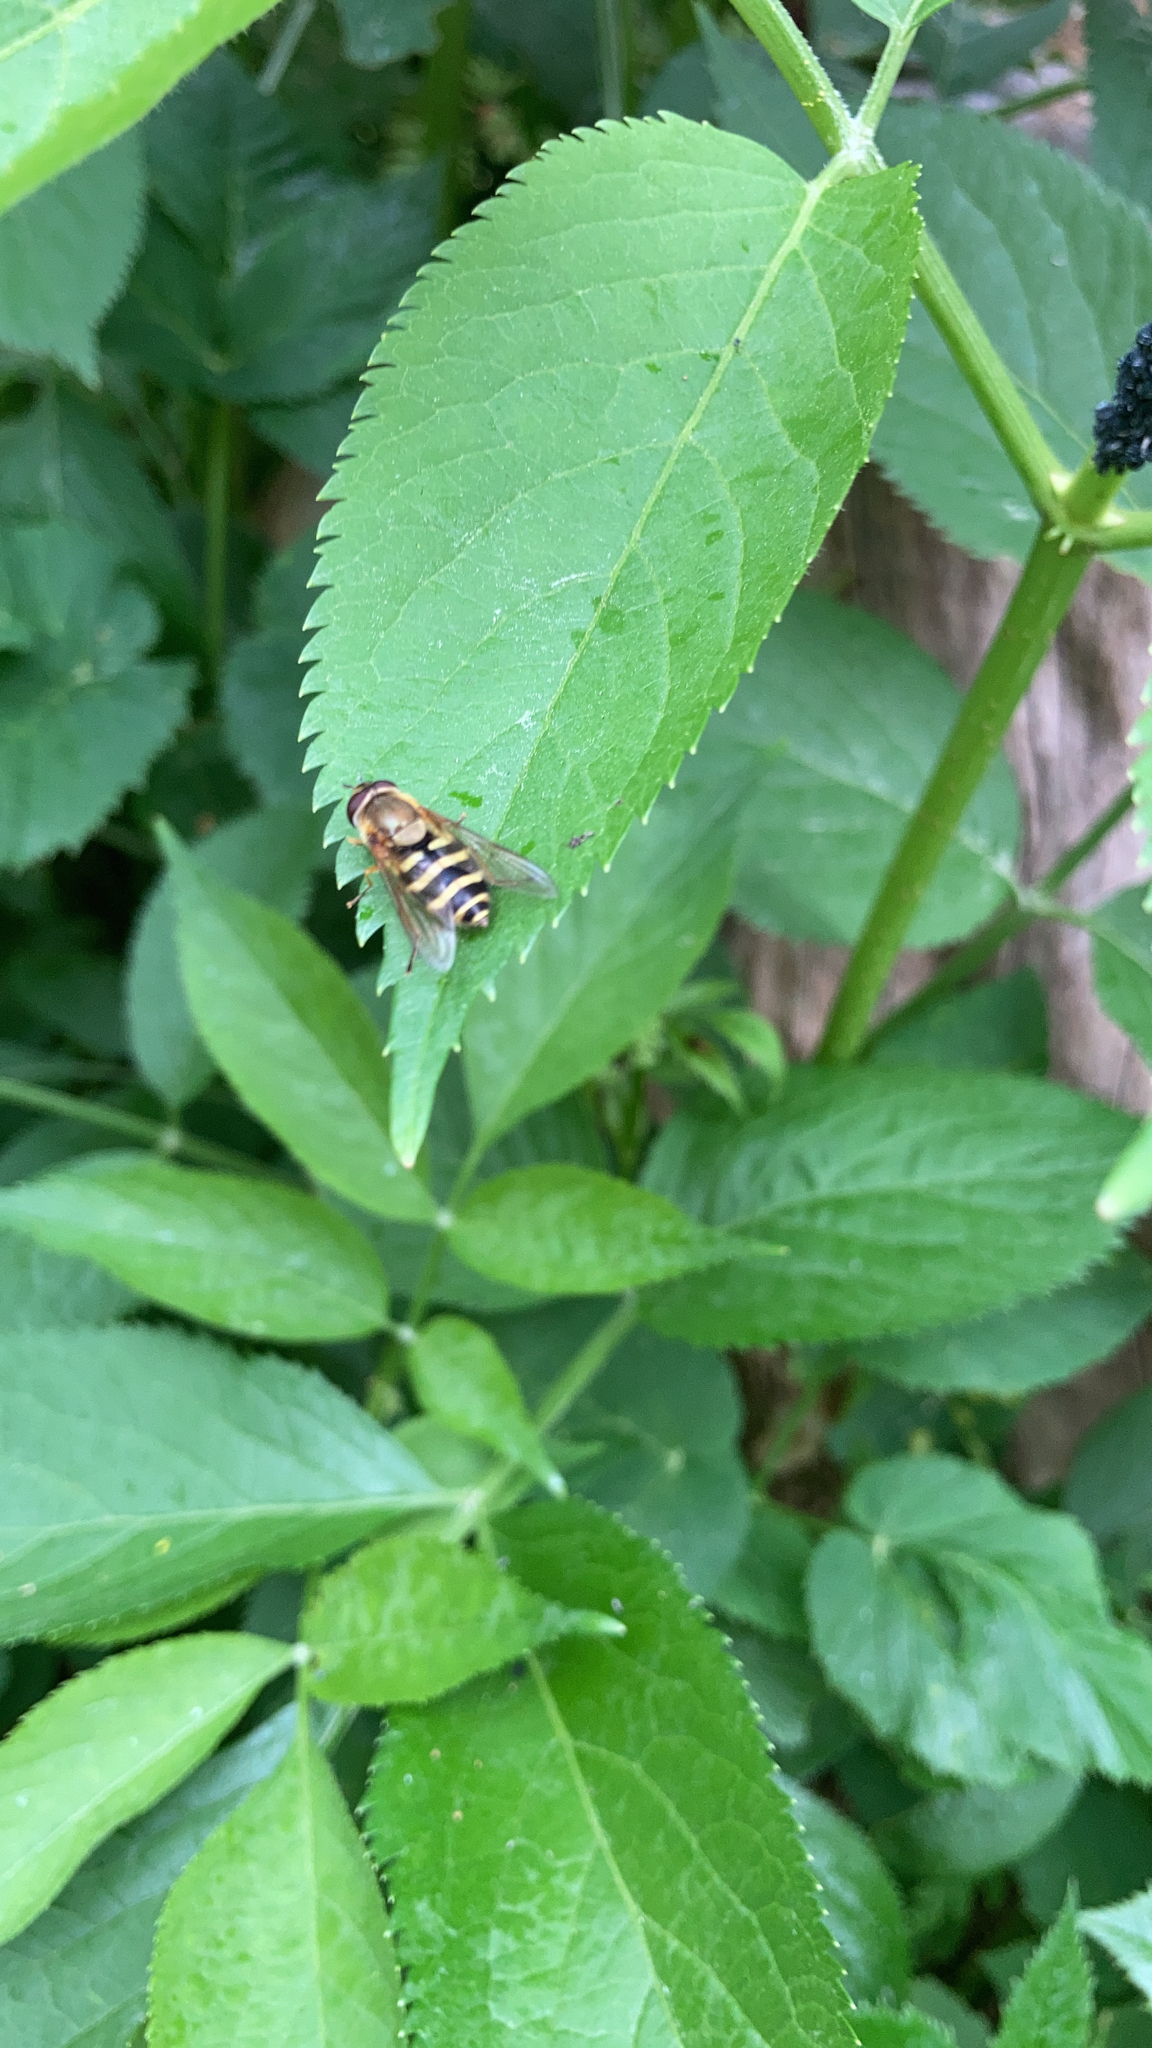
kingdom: Animalia
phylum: Arthropoda
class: Insecta
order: Diptera
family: Syrphidae
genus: Syrphus
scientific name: Syrphus
